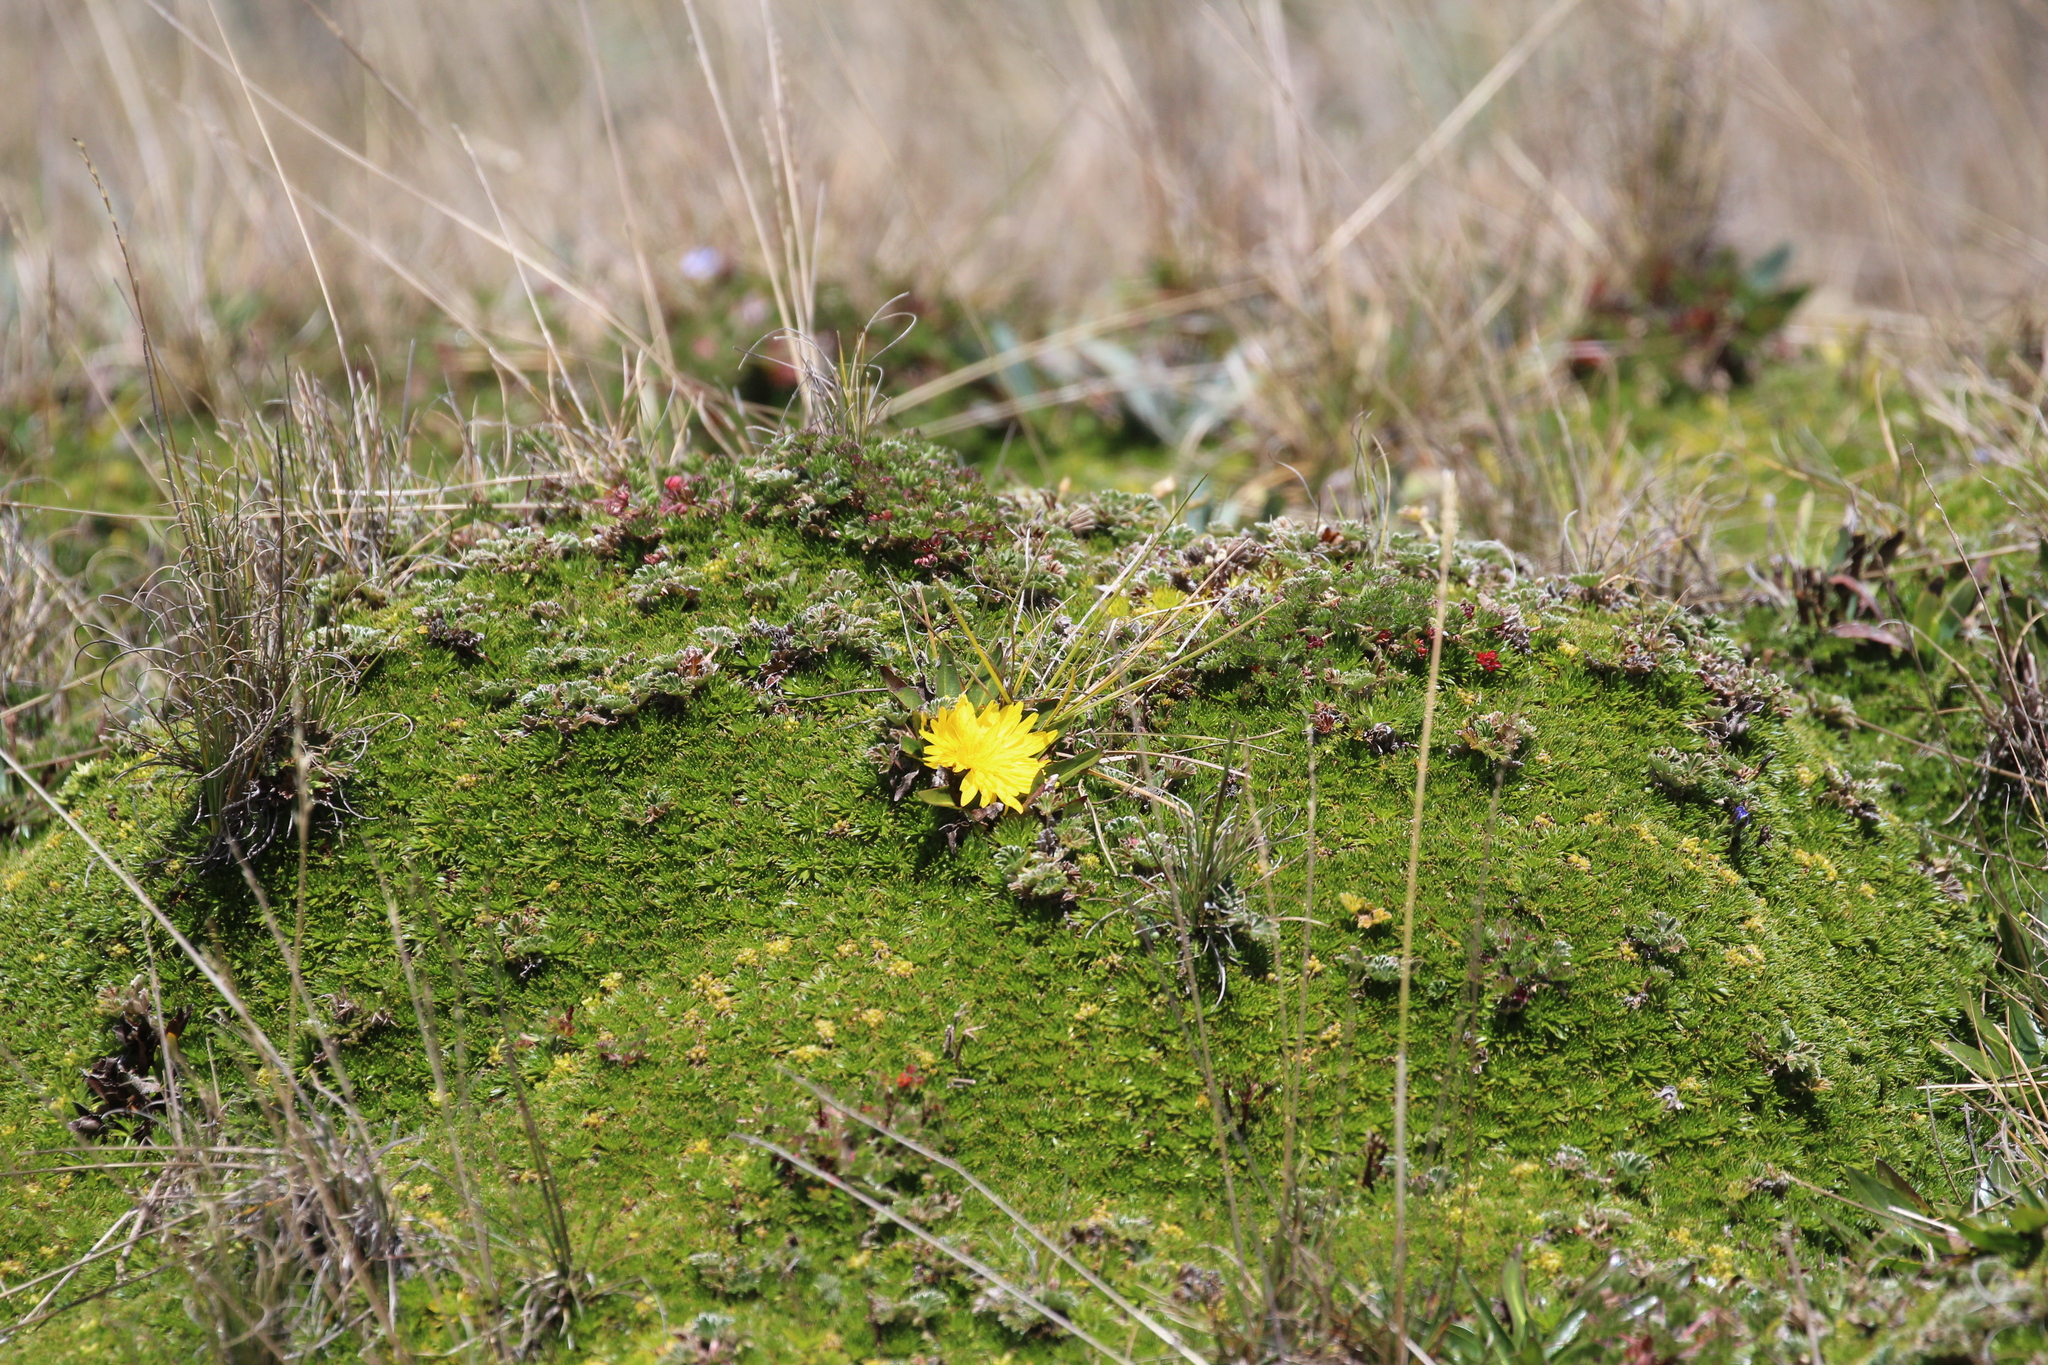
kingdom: Plantae
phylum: Tracheophyta
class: Magnoliopsida
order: Asterales
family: Asteraceae
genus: Hypochaeris
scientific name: Hypochaeris sessiliflora
